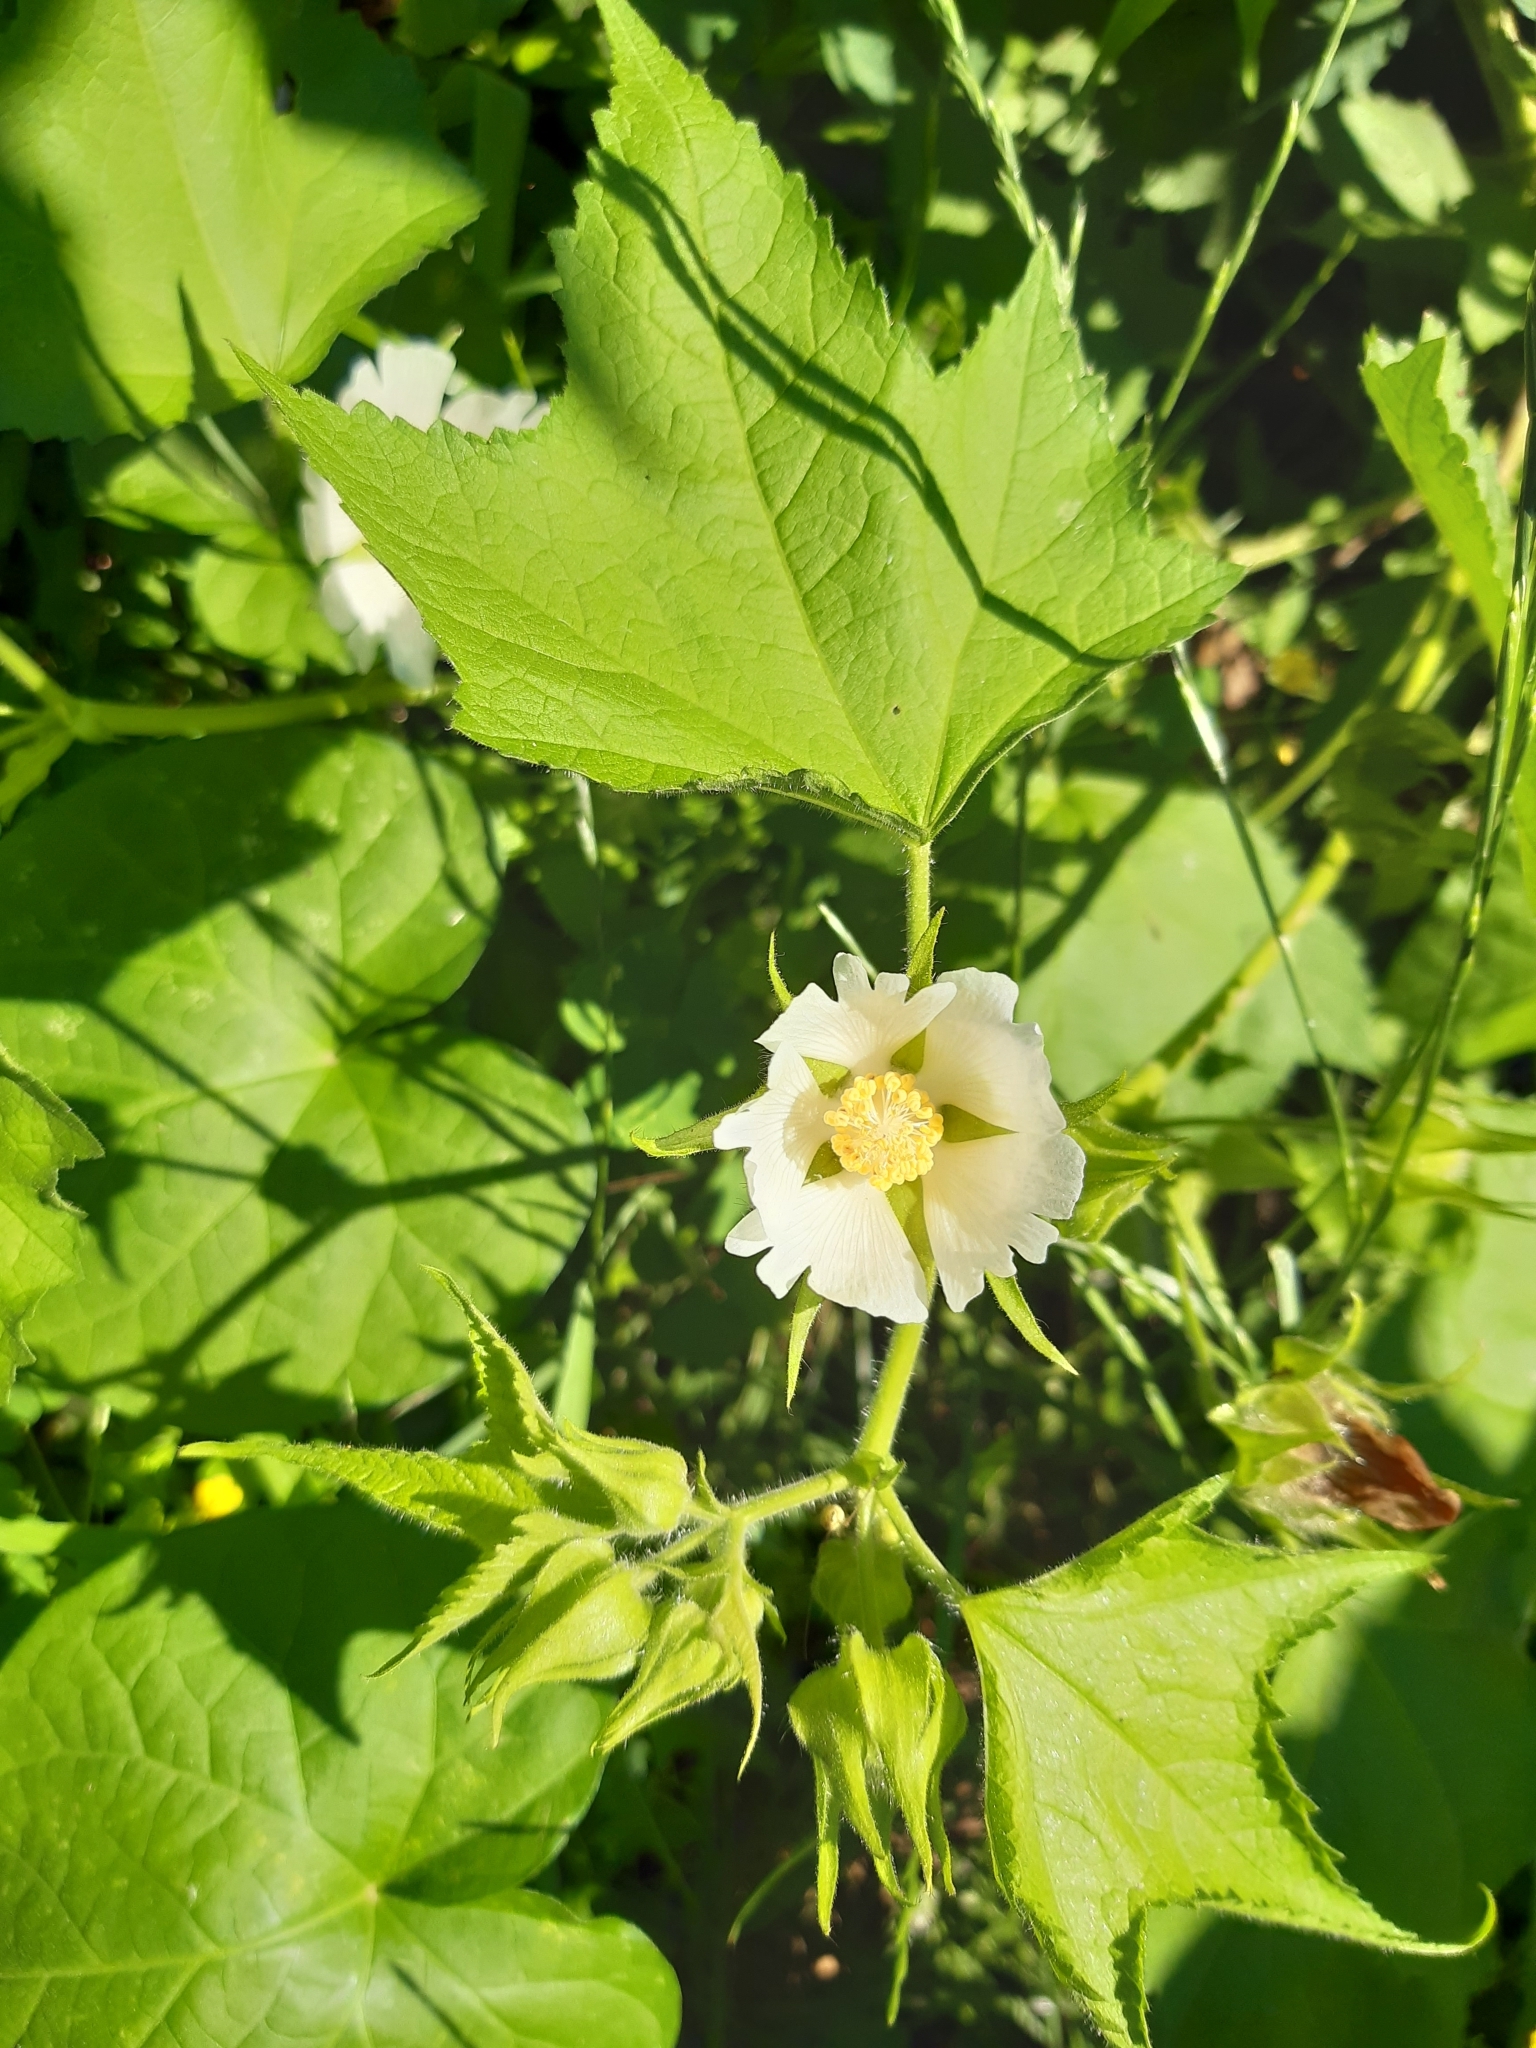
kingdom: Plantae
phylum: Tracheophyta
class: Magnoliopsida
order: Malvales
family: Malvaceae
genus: Kitaibela
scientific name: Kitaibela vitifolia
